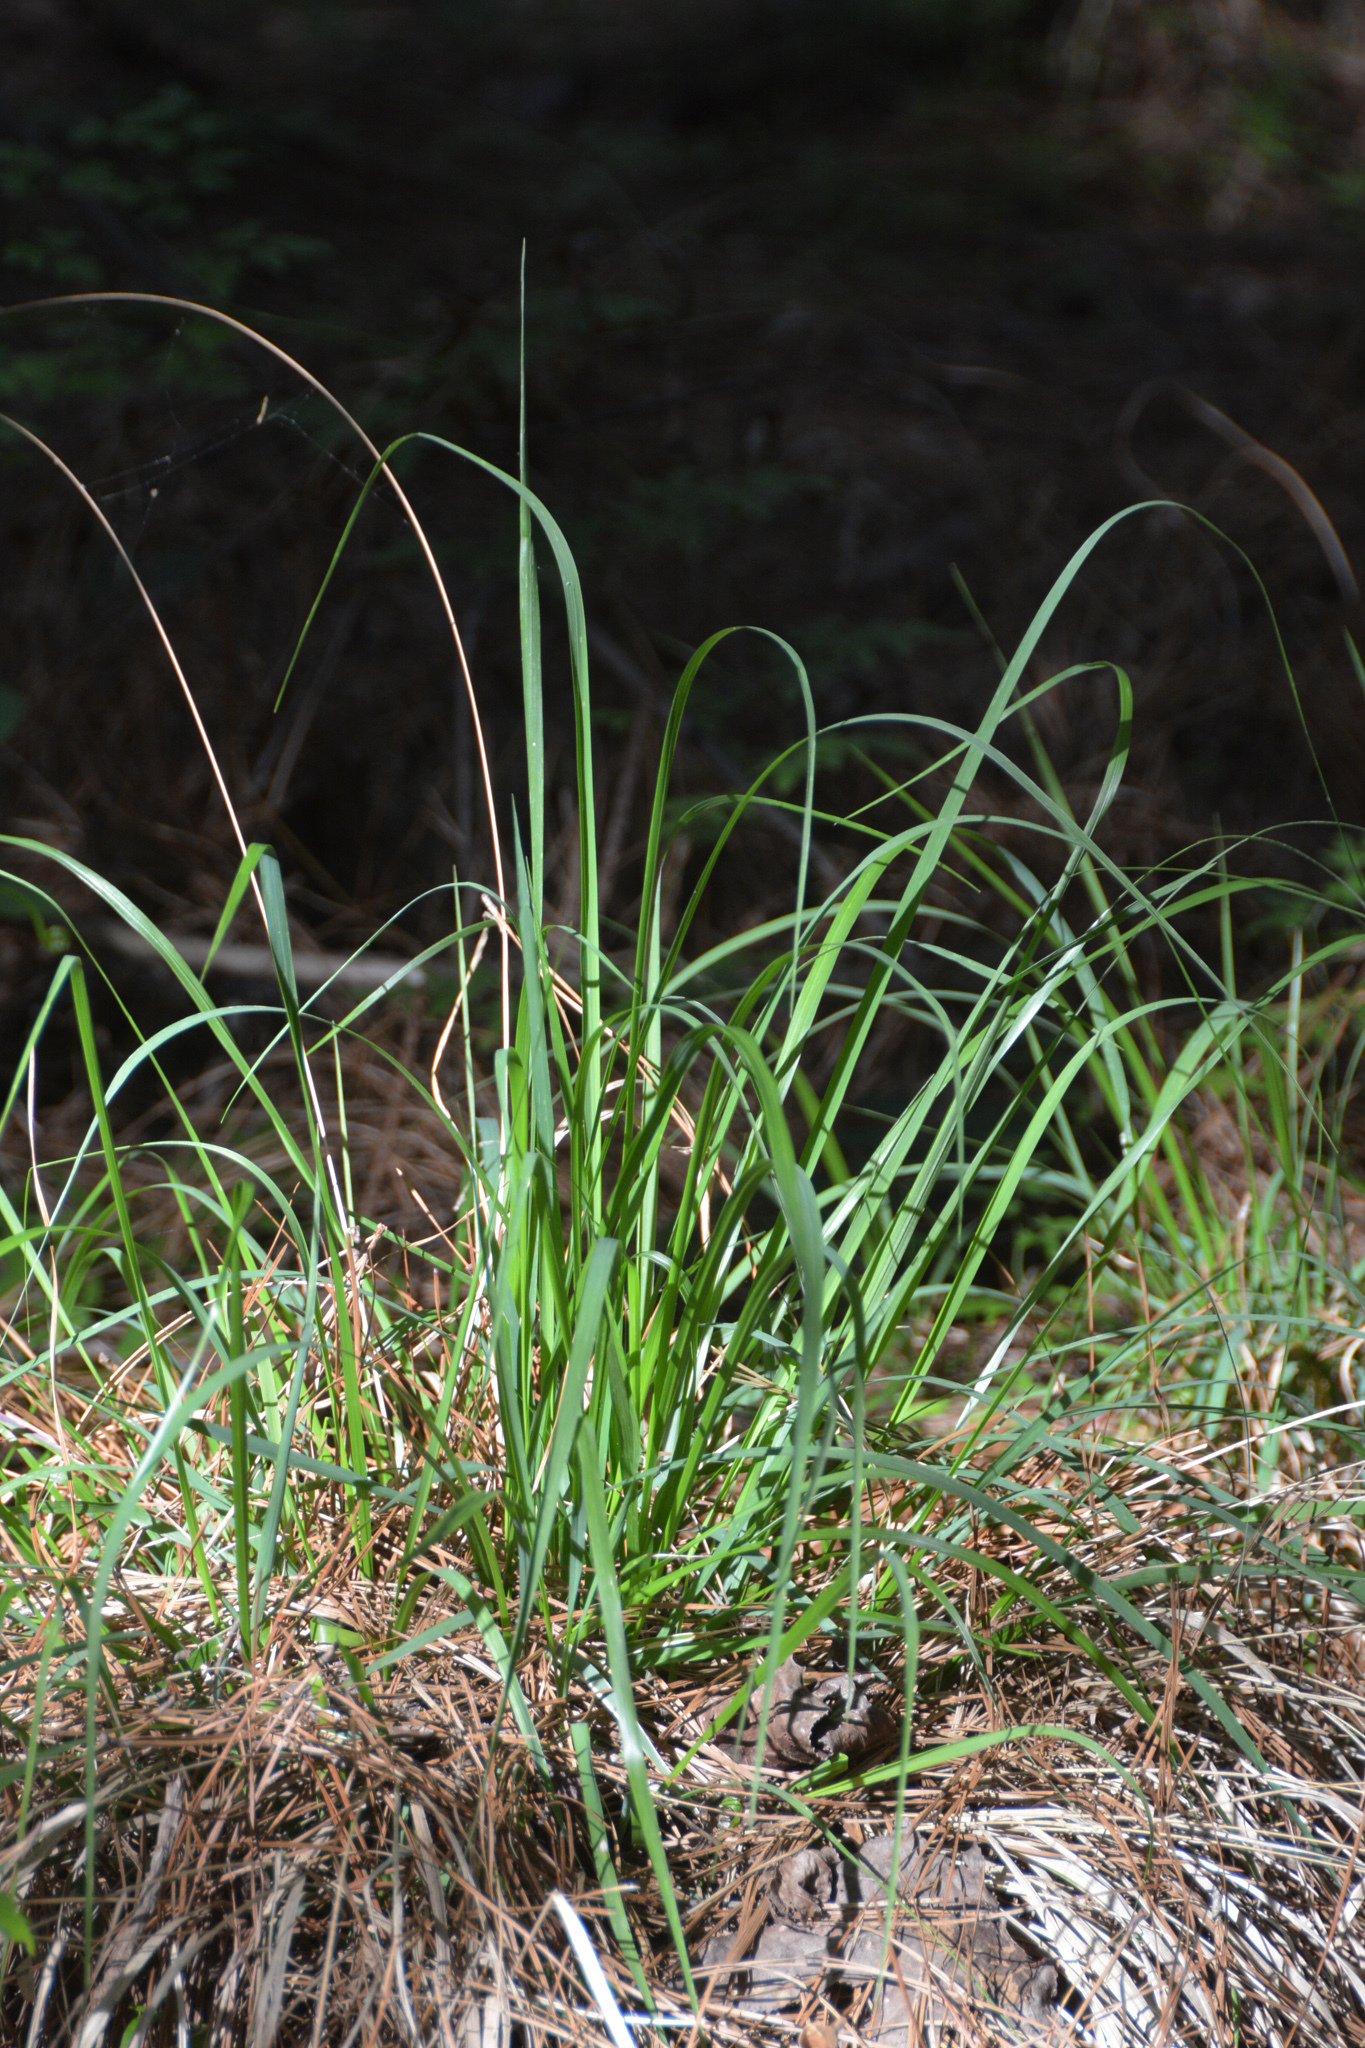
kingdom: Plantae
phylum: Tracheophyta
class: Liliopsida
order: Poales
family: Poaceae
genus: Chasmanthium
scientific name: Chasmanthium laxum
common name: Slender chasmanthium
